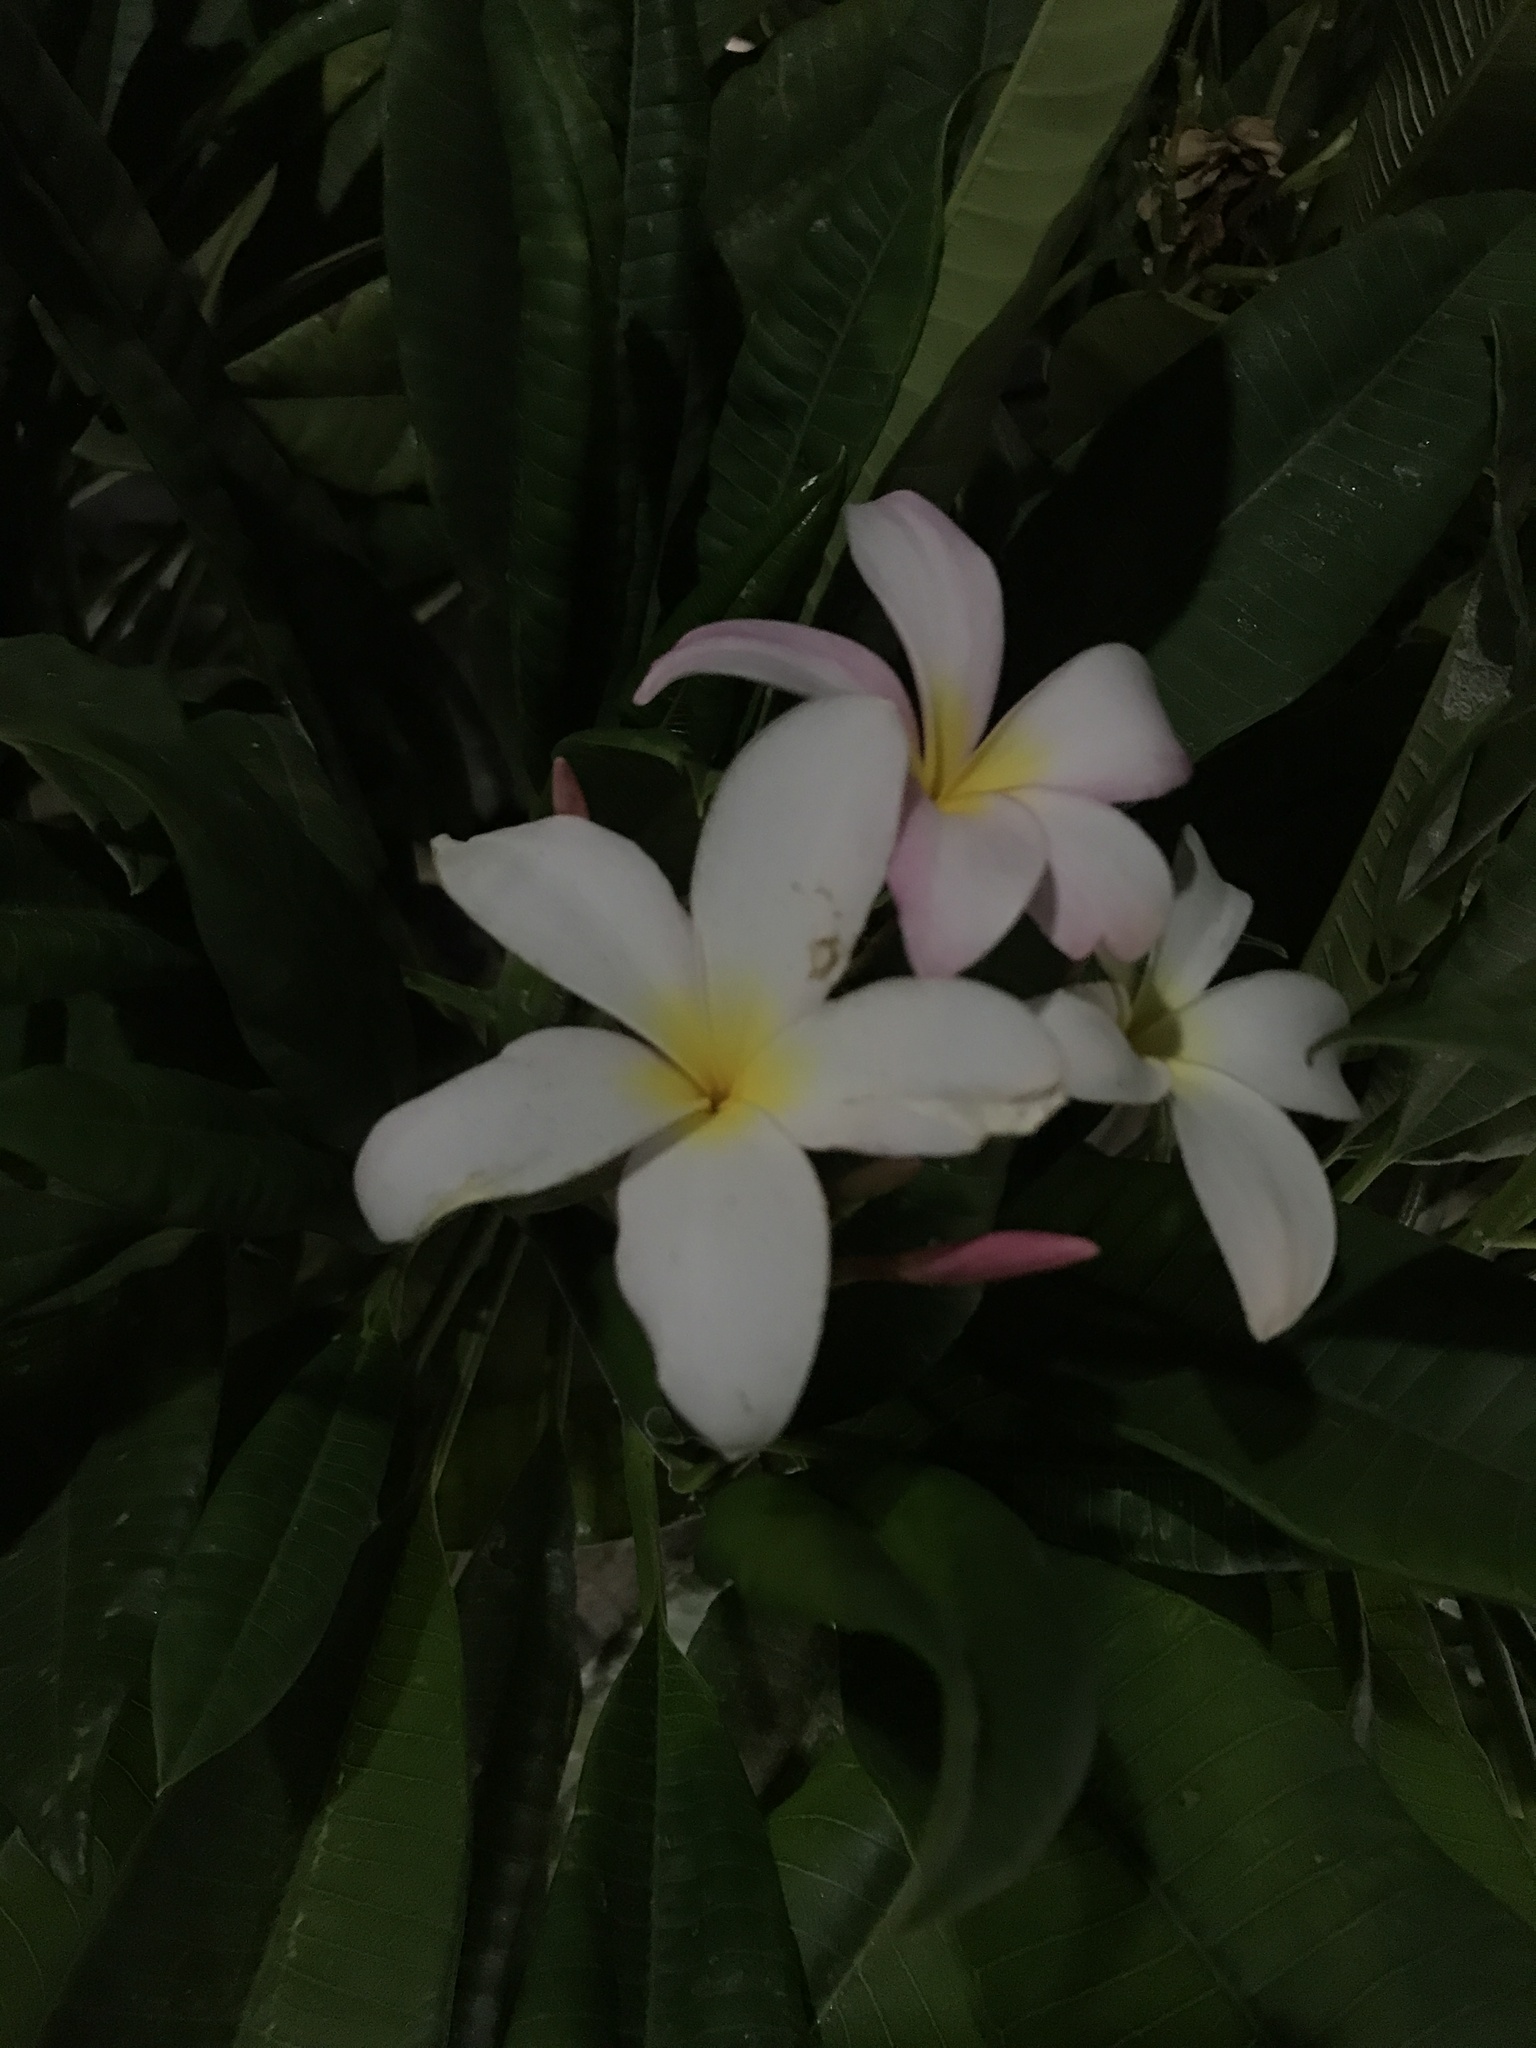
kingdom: Plantae
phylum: Tracheophyta
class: Magnoliopsida
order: Gentianales
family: Apocynaceae
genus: Plumeria
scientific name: Plumeria rubra
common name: Pagoda-tree
